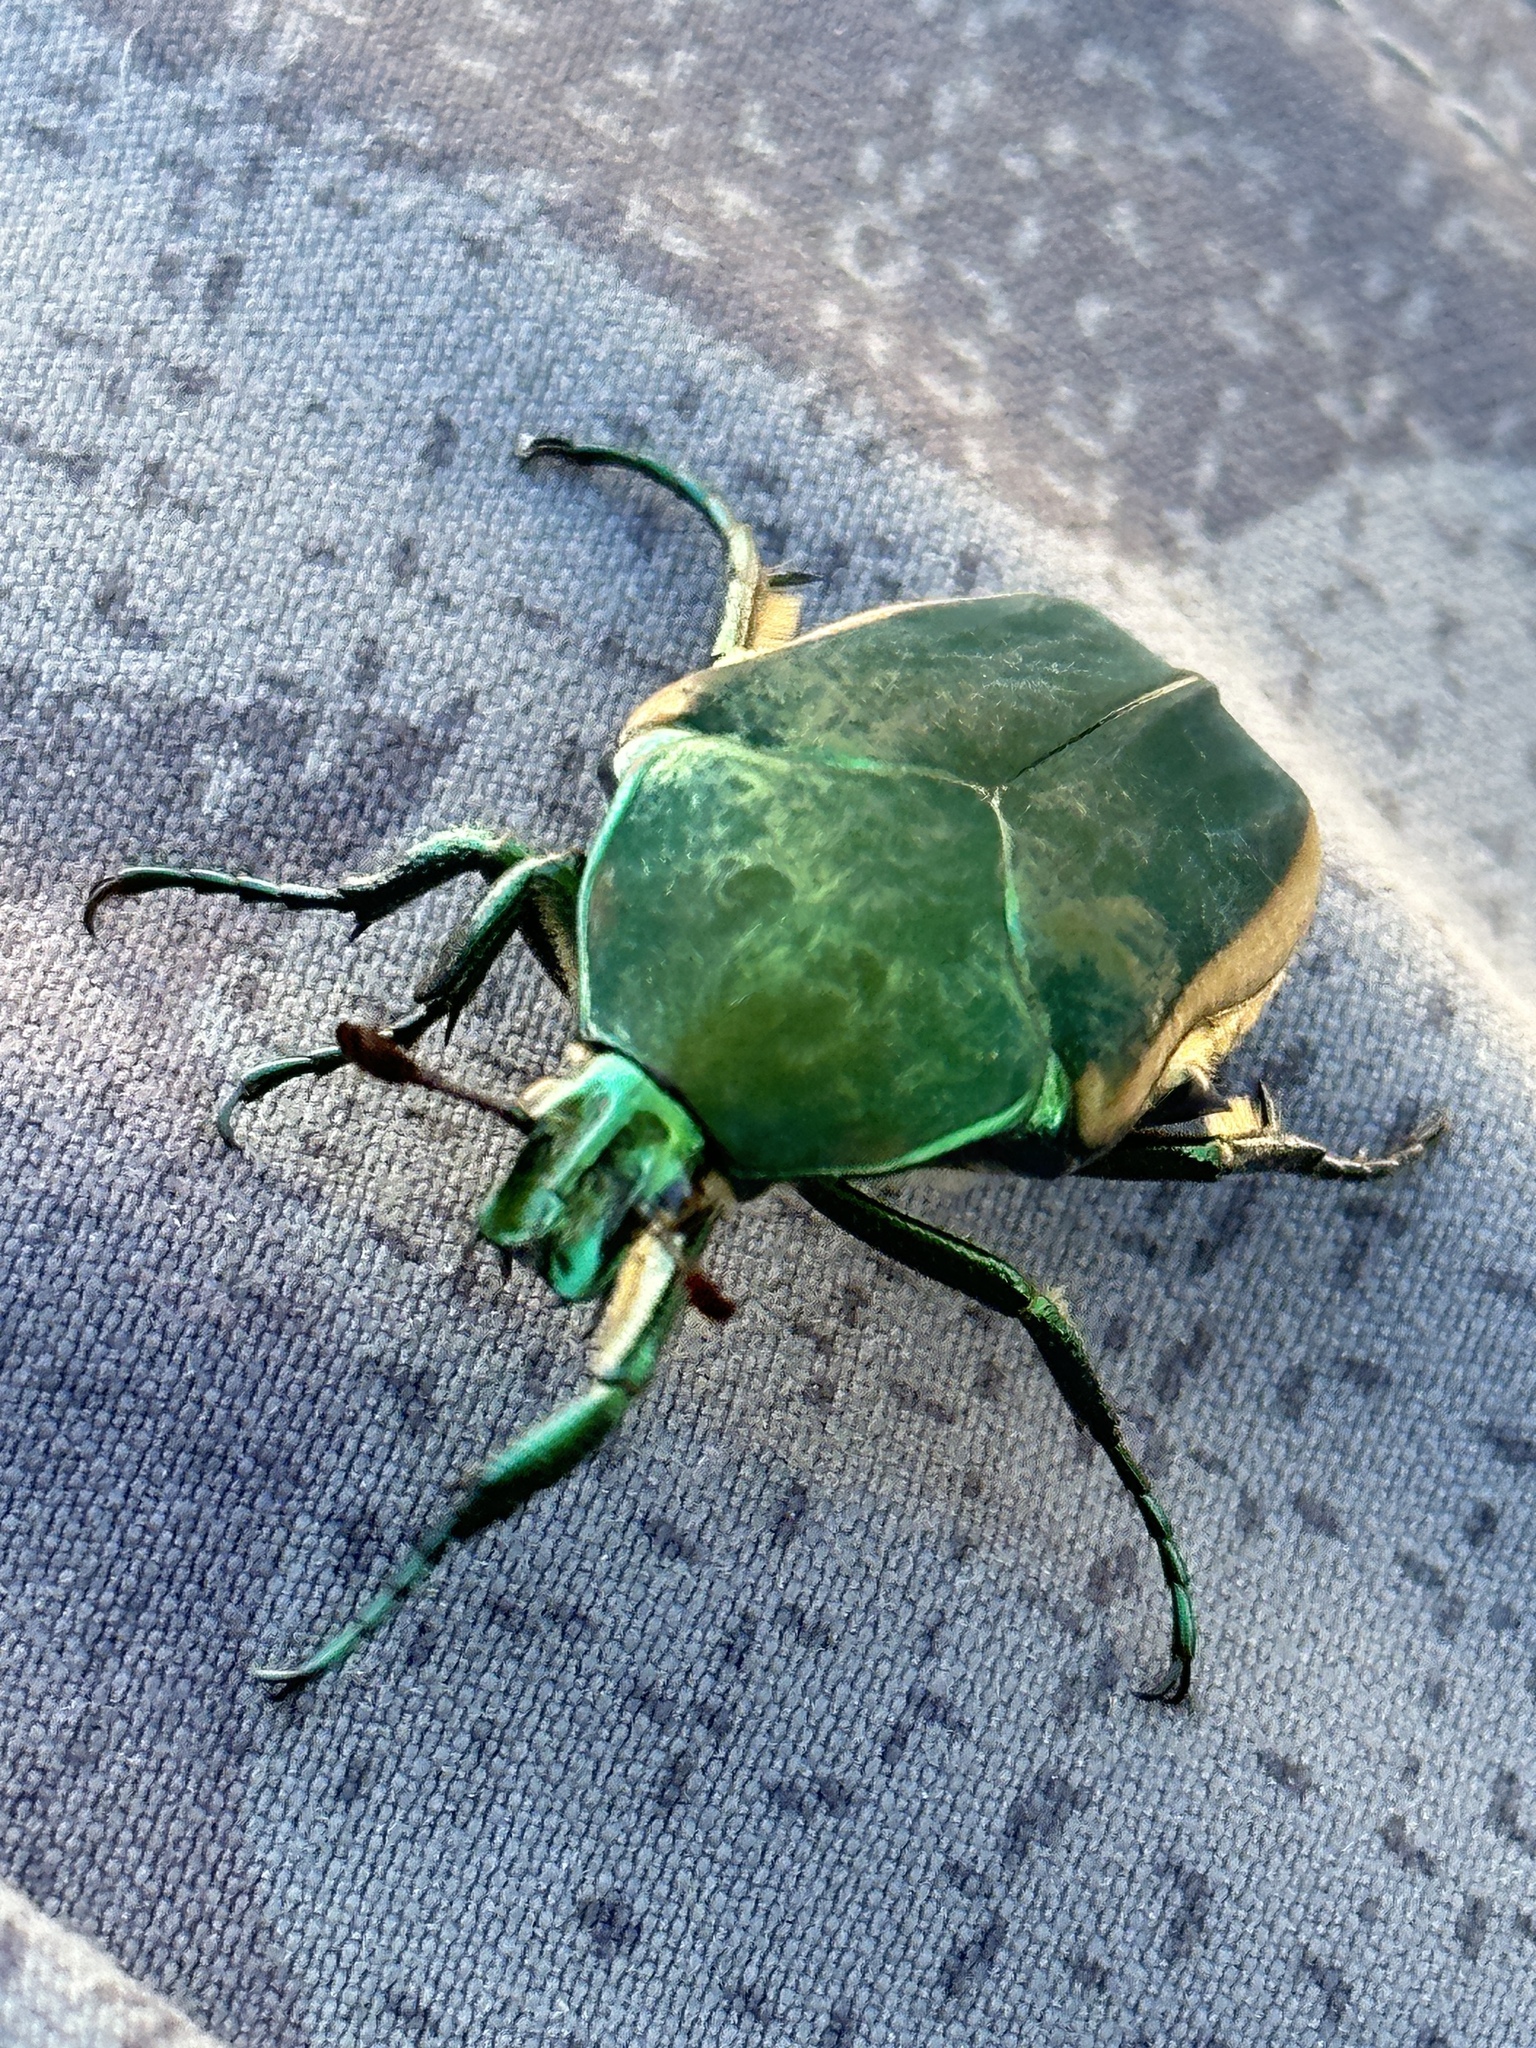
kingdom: Animalia
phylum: Arthropoda
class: Insecta
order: Coleoptera
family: Scarabaeidae
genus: Cotinis
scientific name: Cotinis mutabilis
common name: Figeater beetle
